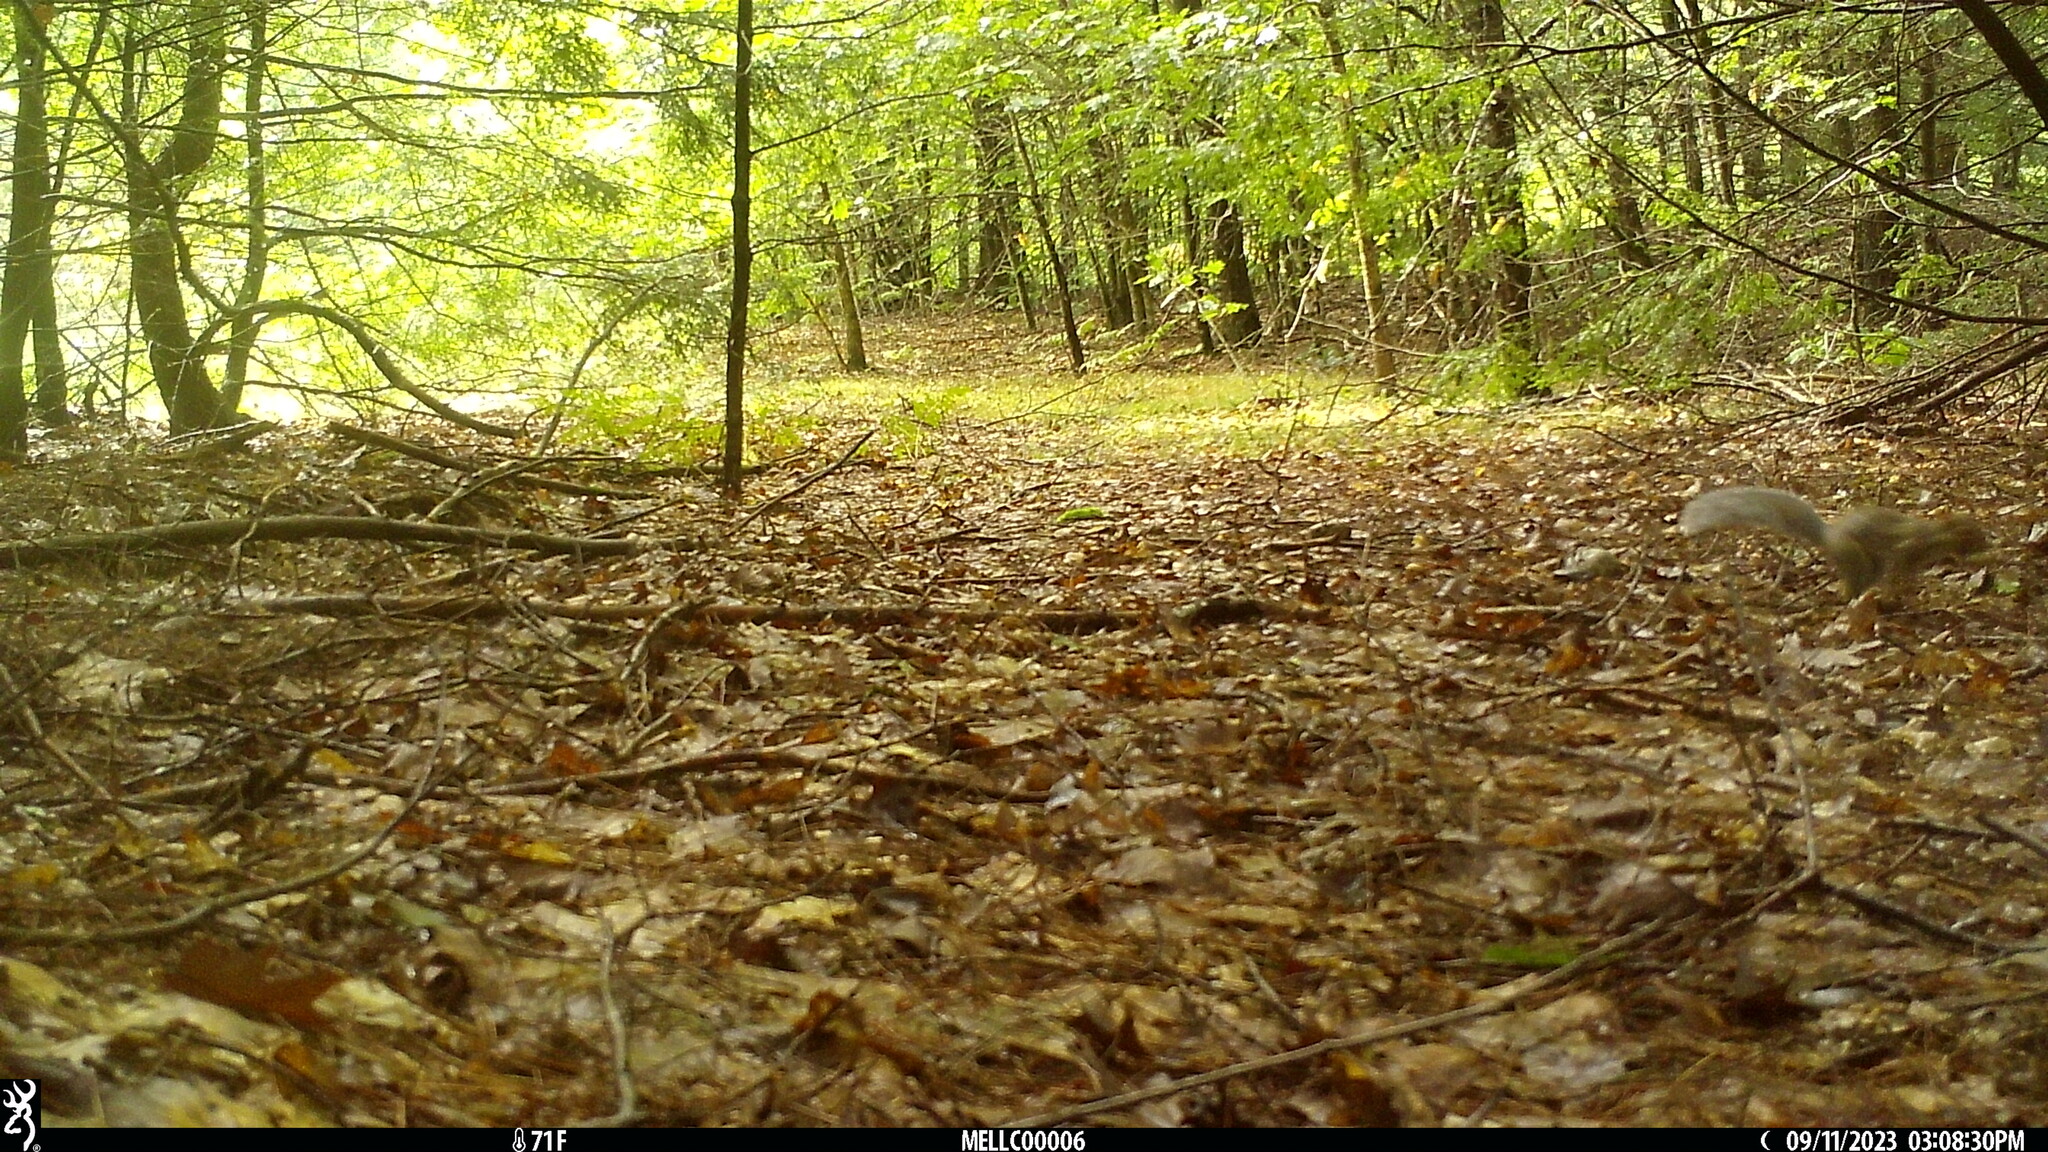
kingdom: Animalia
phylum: Chordata
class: Mammalia
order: Rodentia
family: Sciuridae
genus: Sciurus
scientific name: Sciurus carolinensis
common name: Eastern gray squirrel
